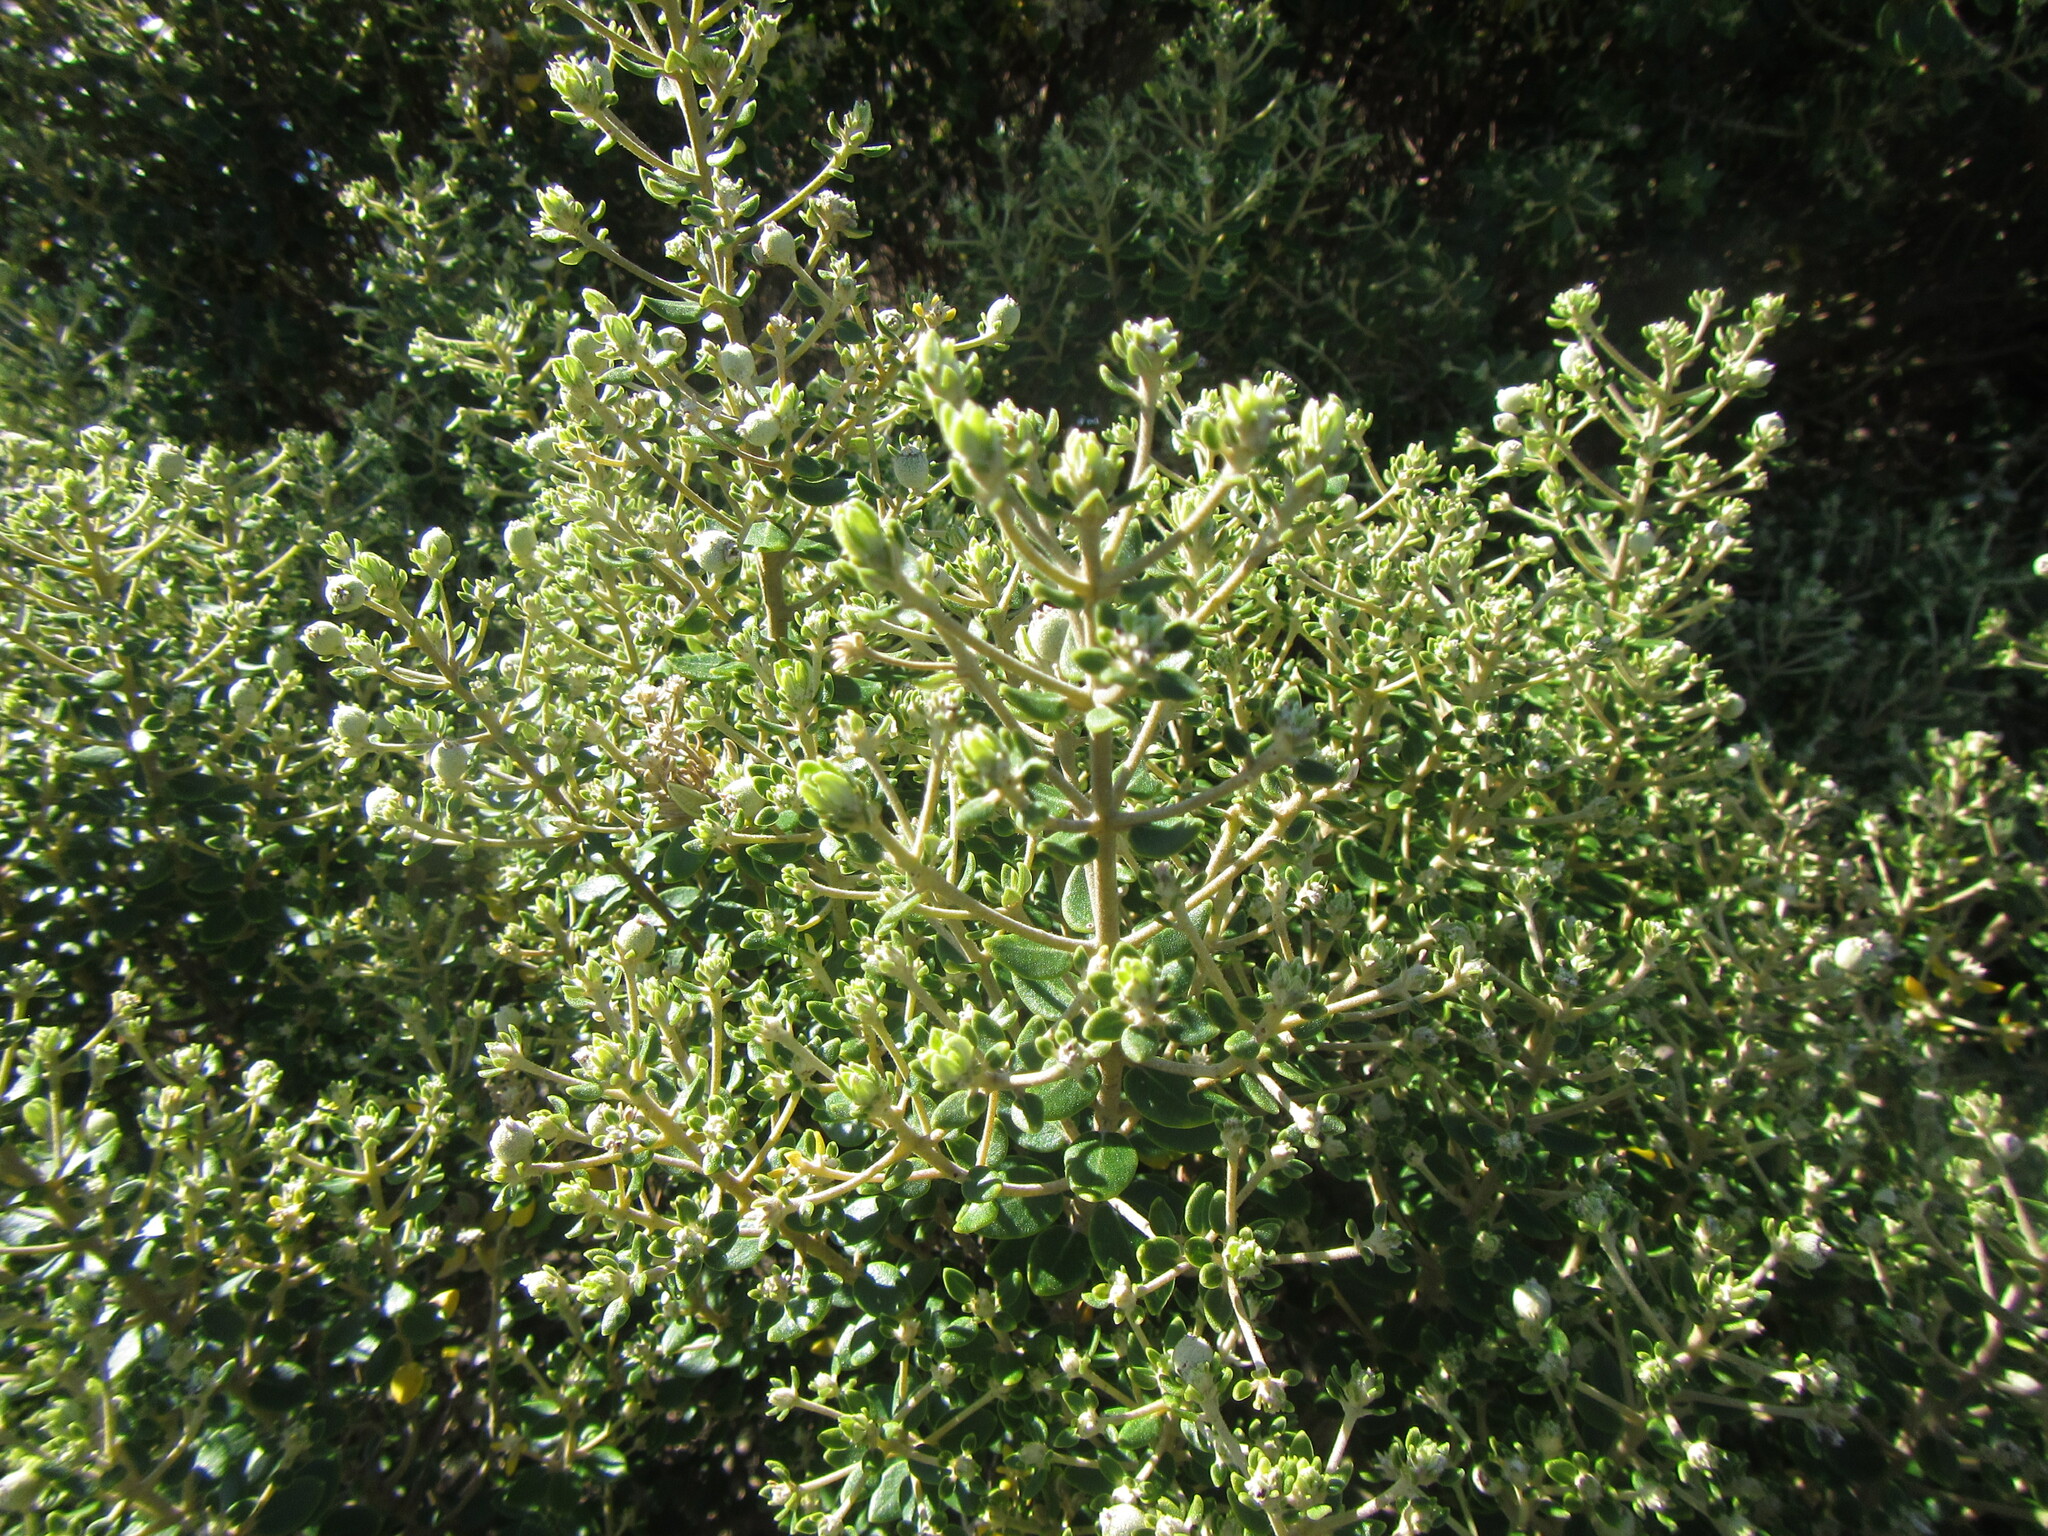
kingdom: Plantae
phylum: Tracheophyta
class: Magnoliopsida
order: Rosales
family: Rhamnaceae
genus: Phylica
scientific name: Phylica buxifolia
